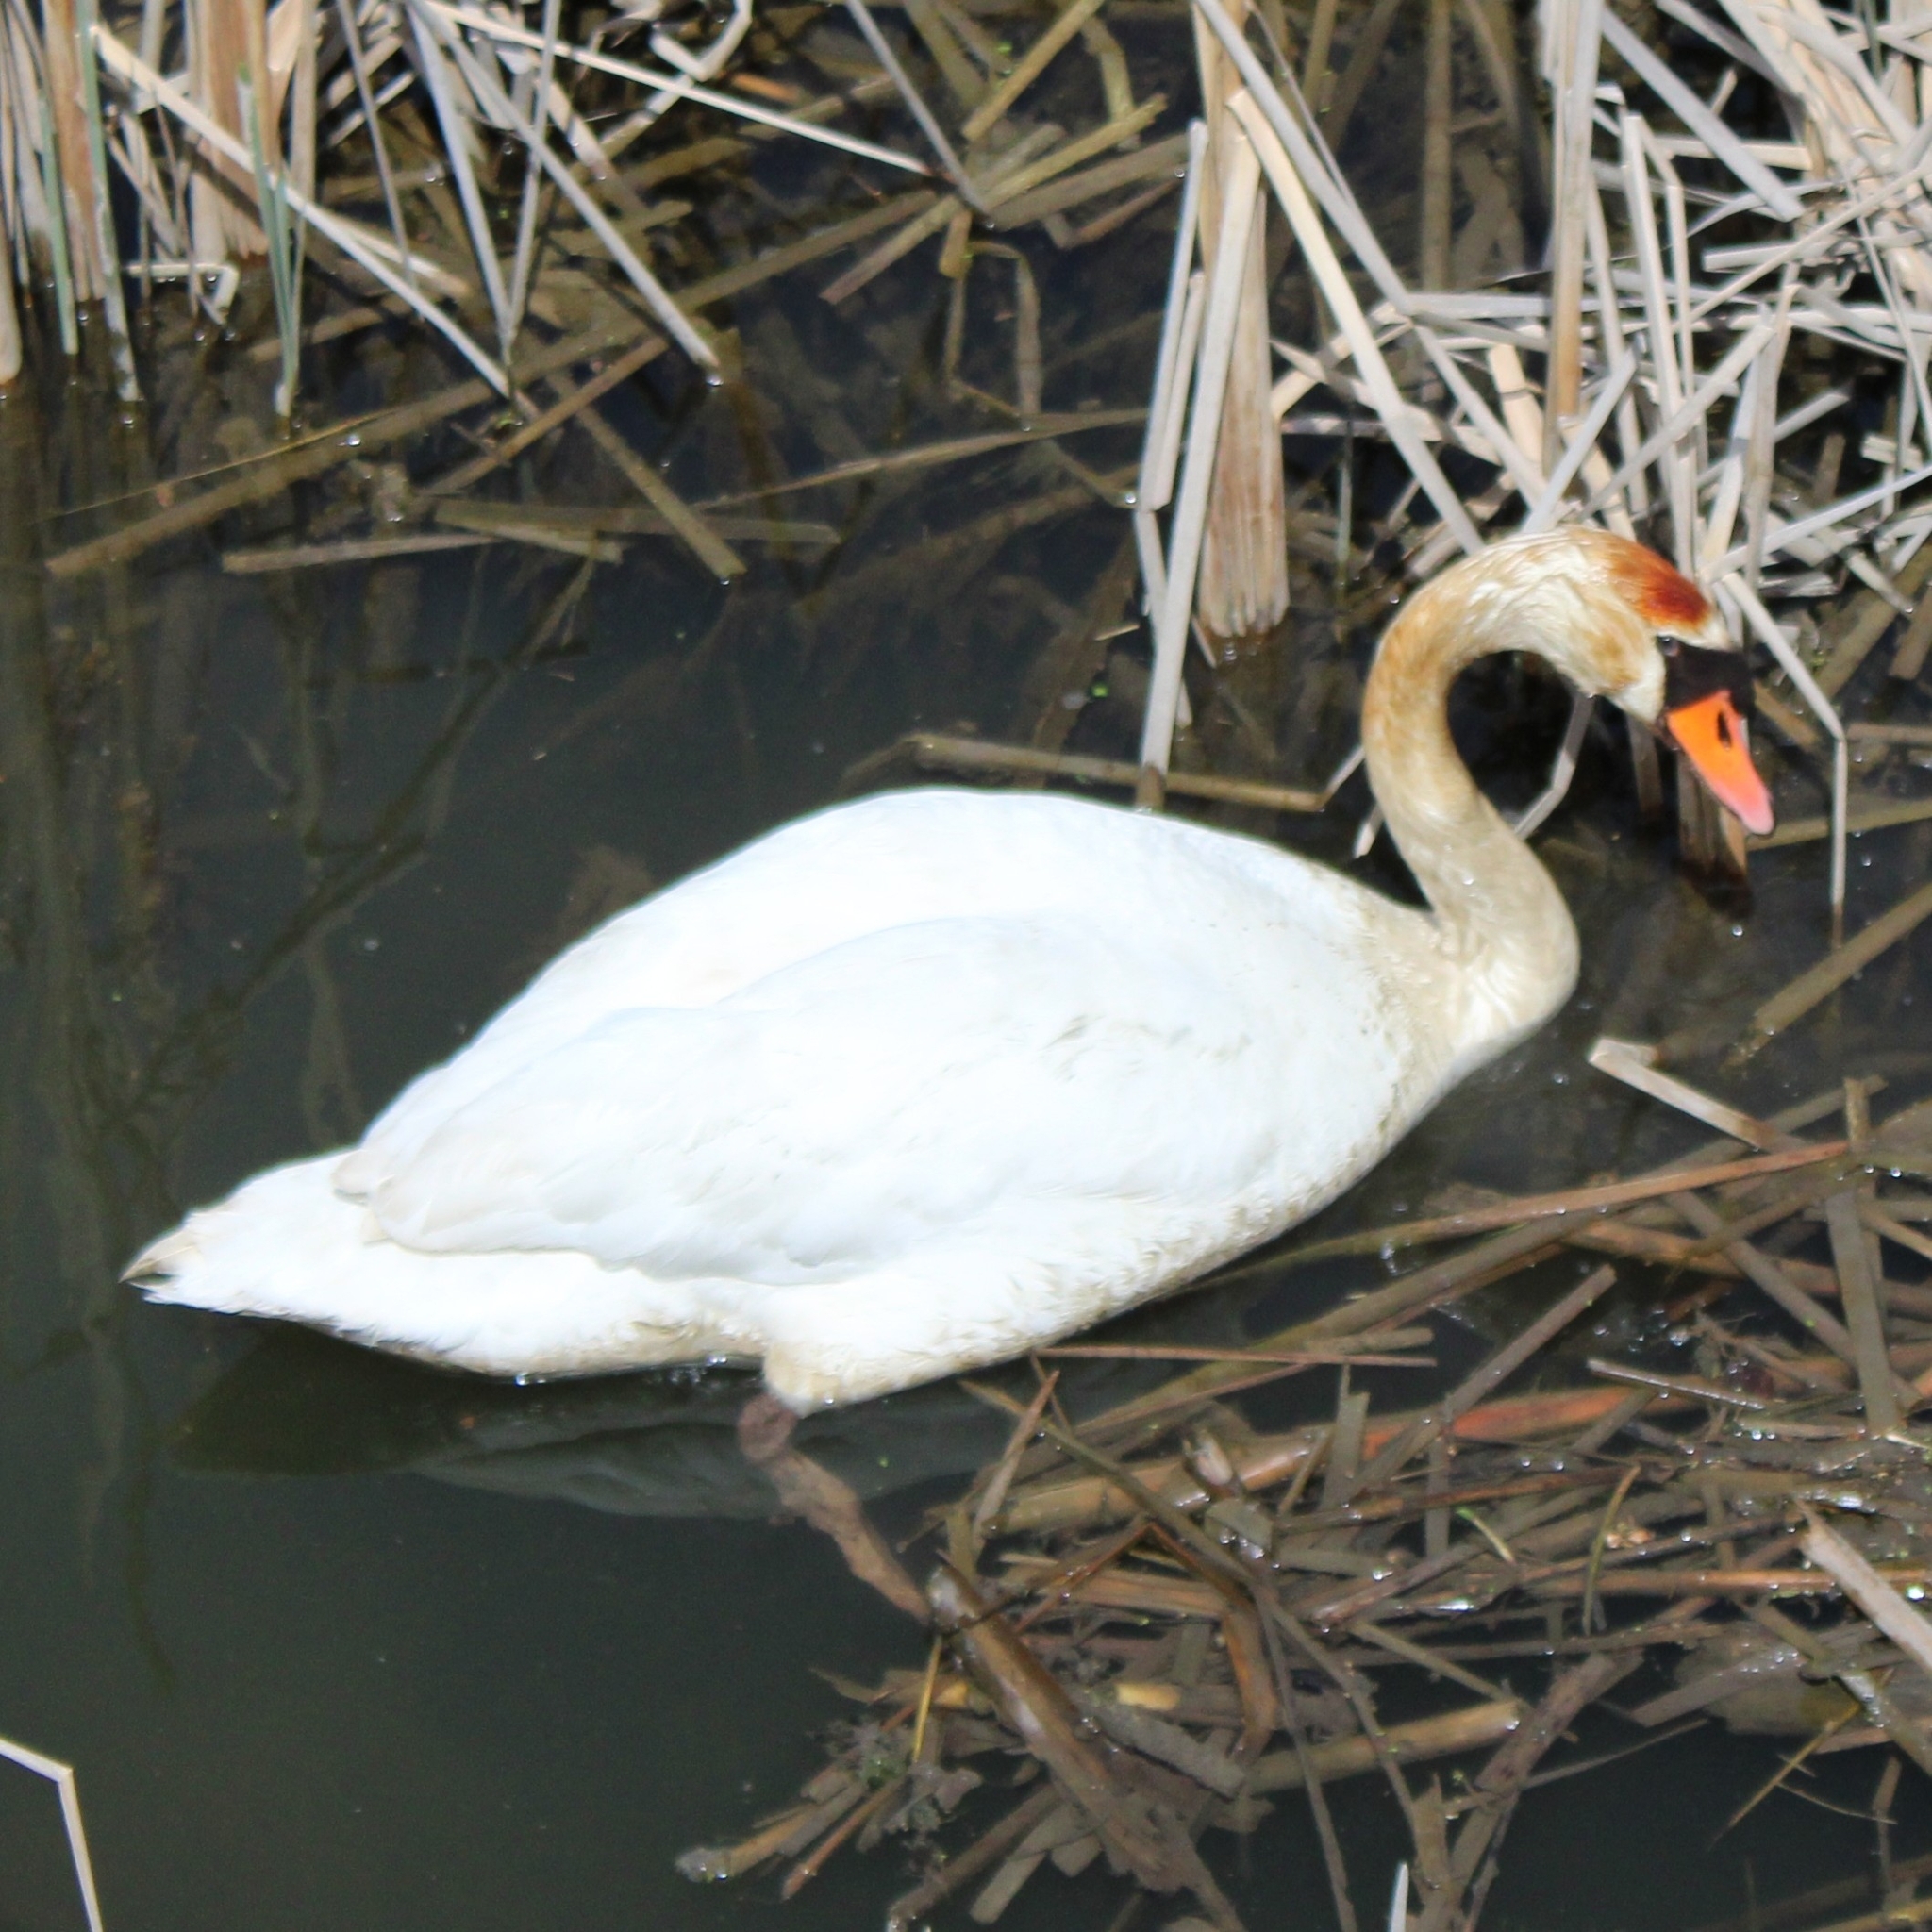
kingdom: Animalia
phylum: Chordata
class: Aves
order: Anseriformes
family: Anatidae
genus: Cygnus
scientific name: Cygnus olor
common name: Mute swan
